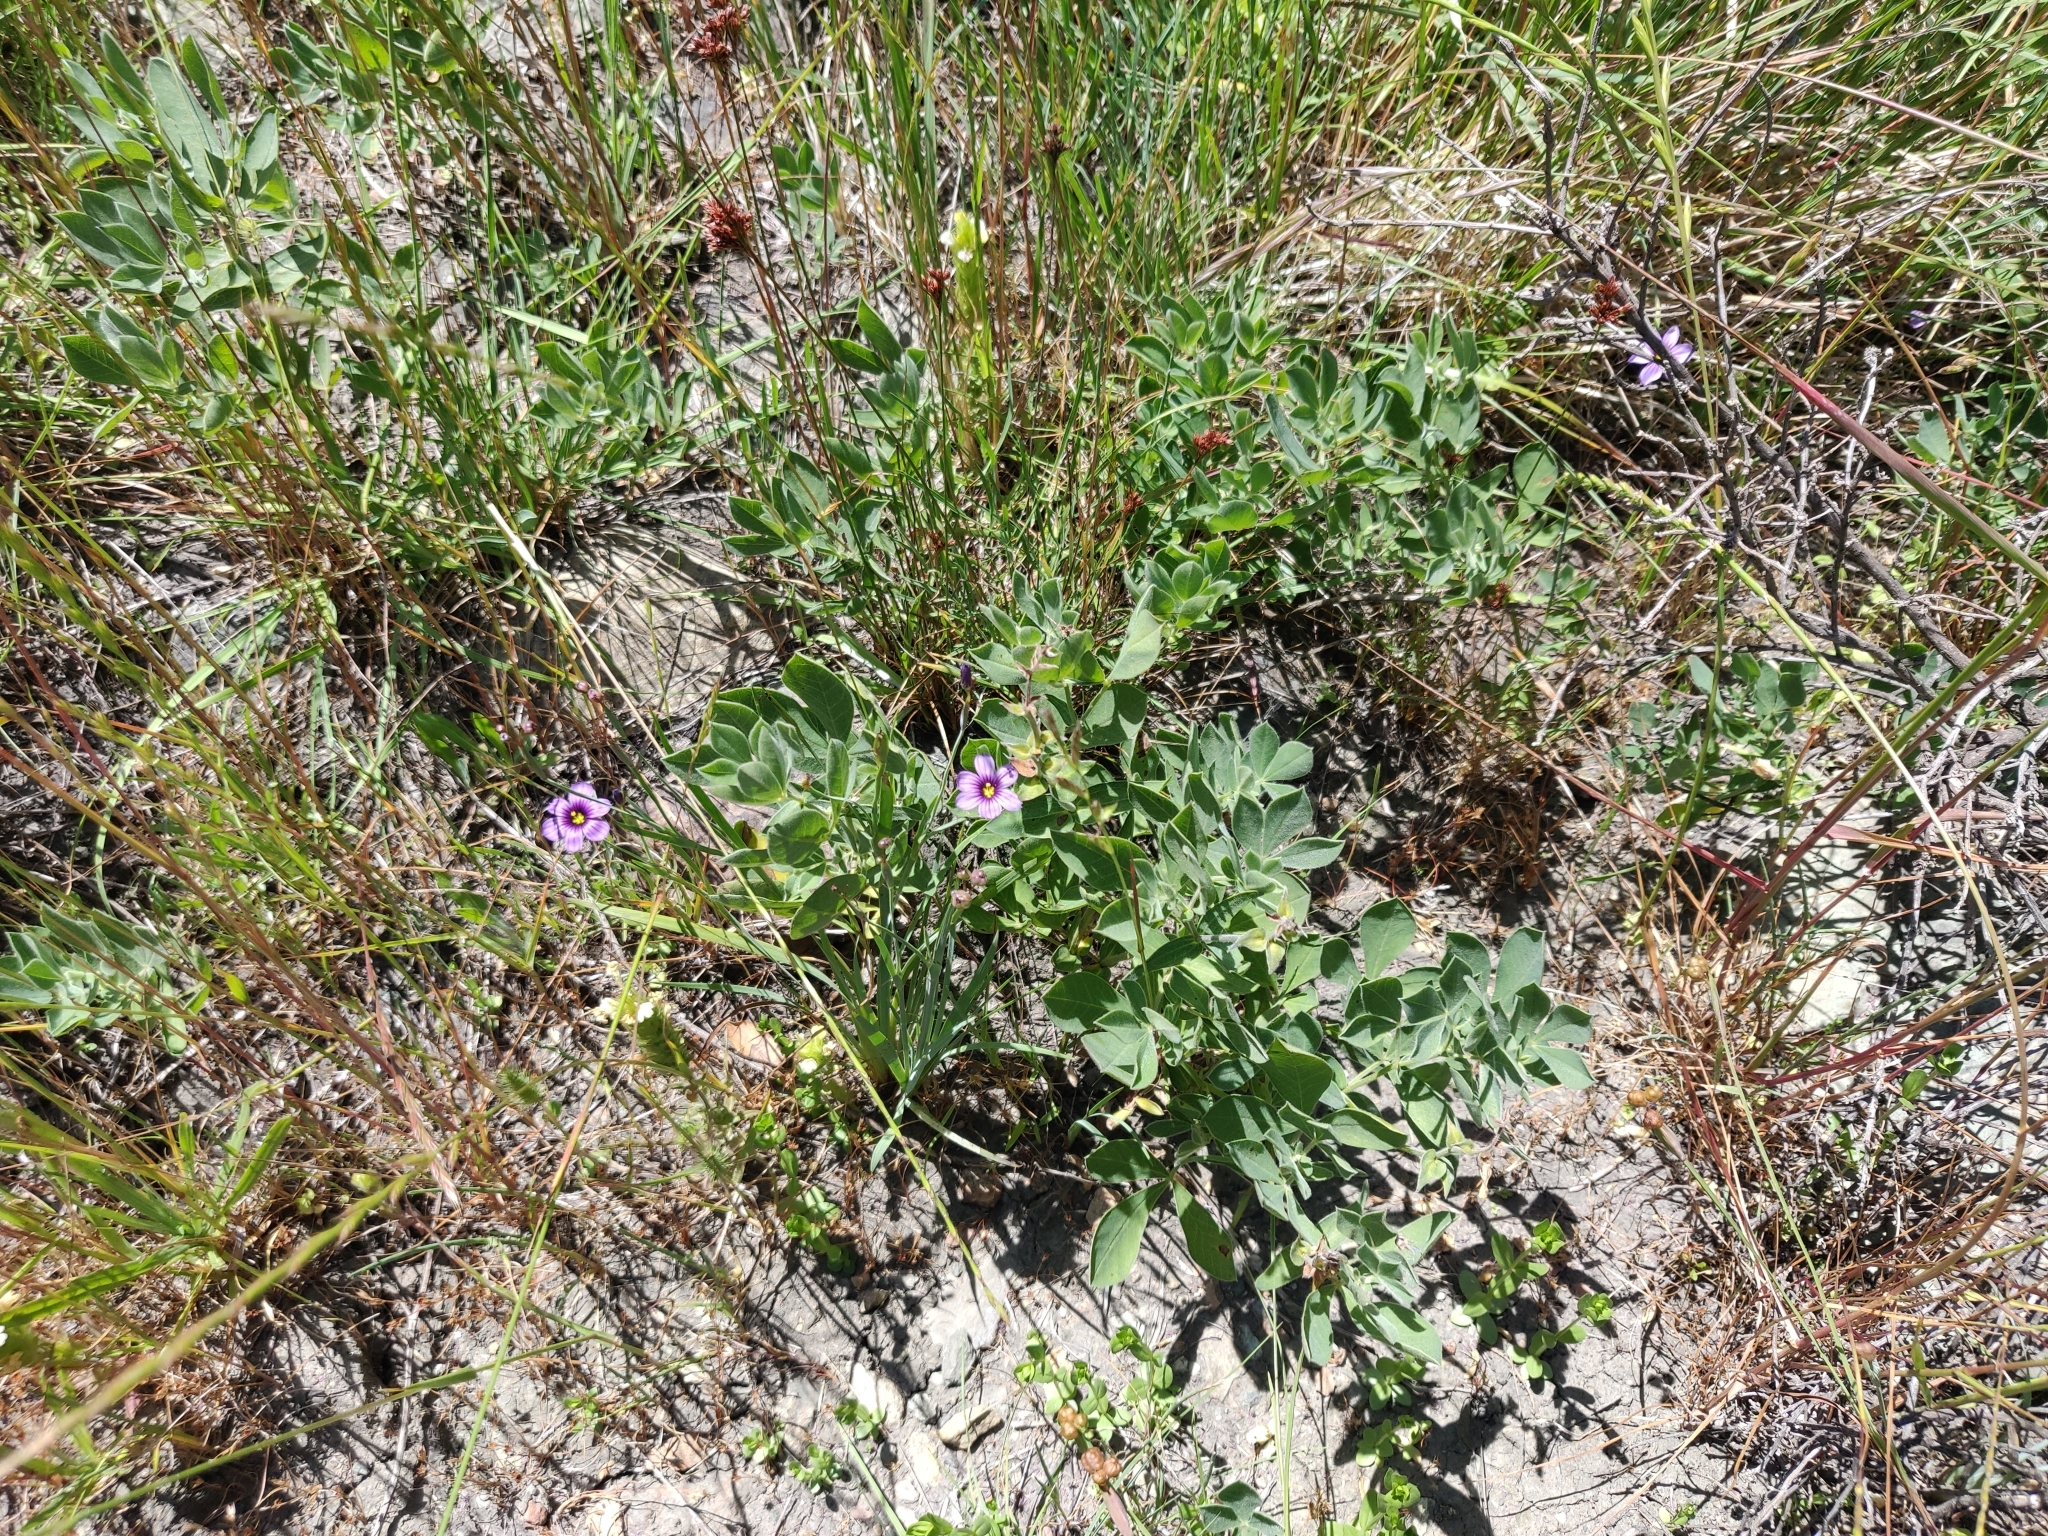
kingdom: Plantae
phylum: Tracheophyta
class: Liliopsida
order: Asparagales
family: Iridaceae
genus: Sisyrinchium
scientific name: Sisyrinchium bellum
